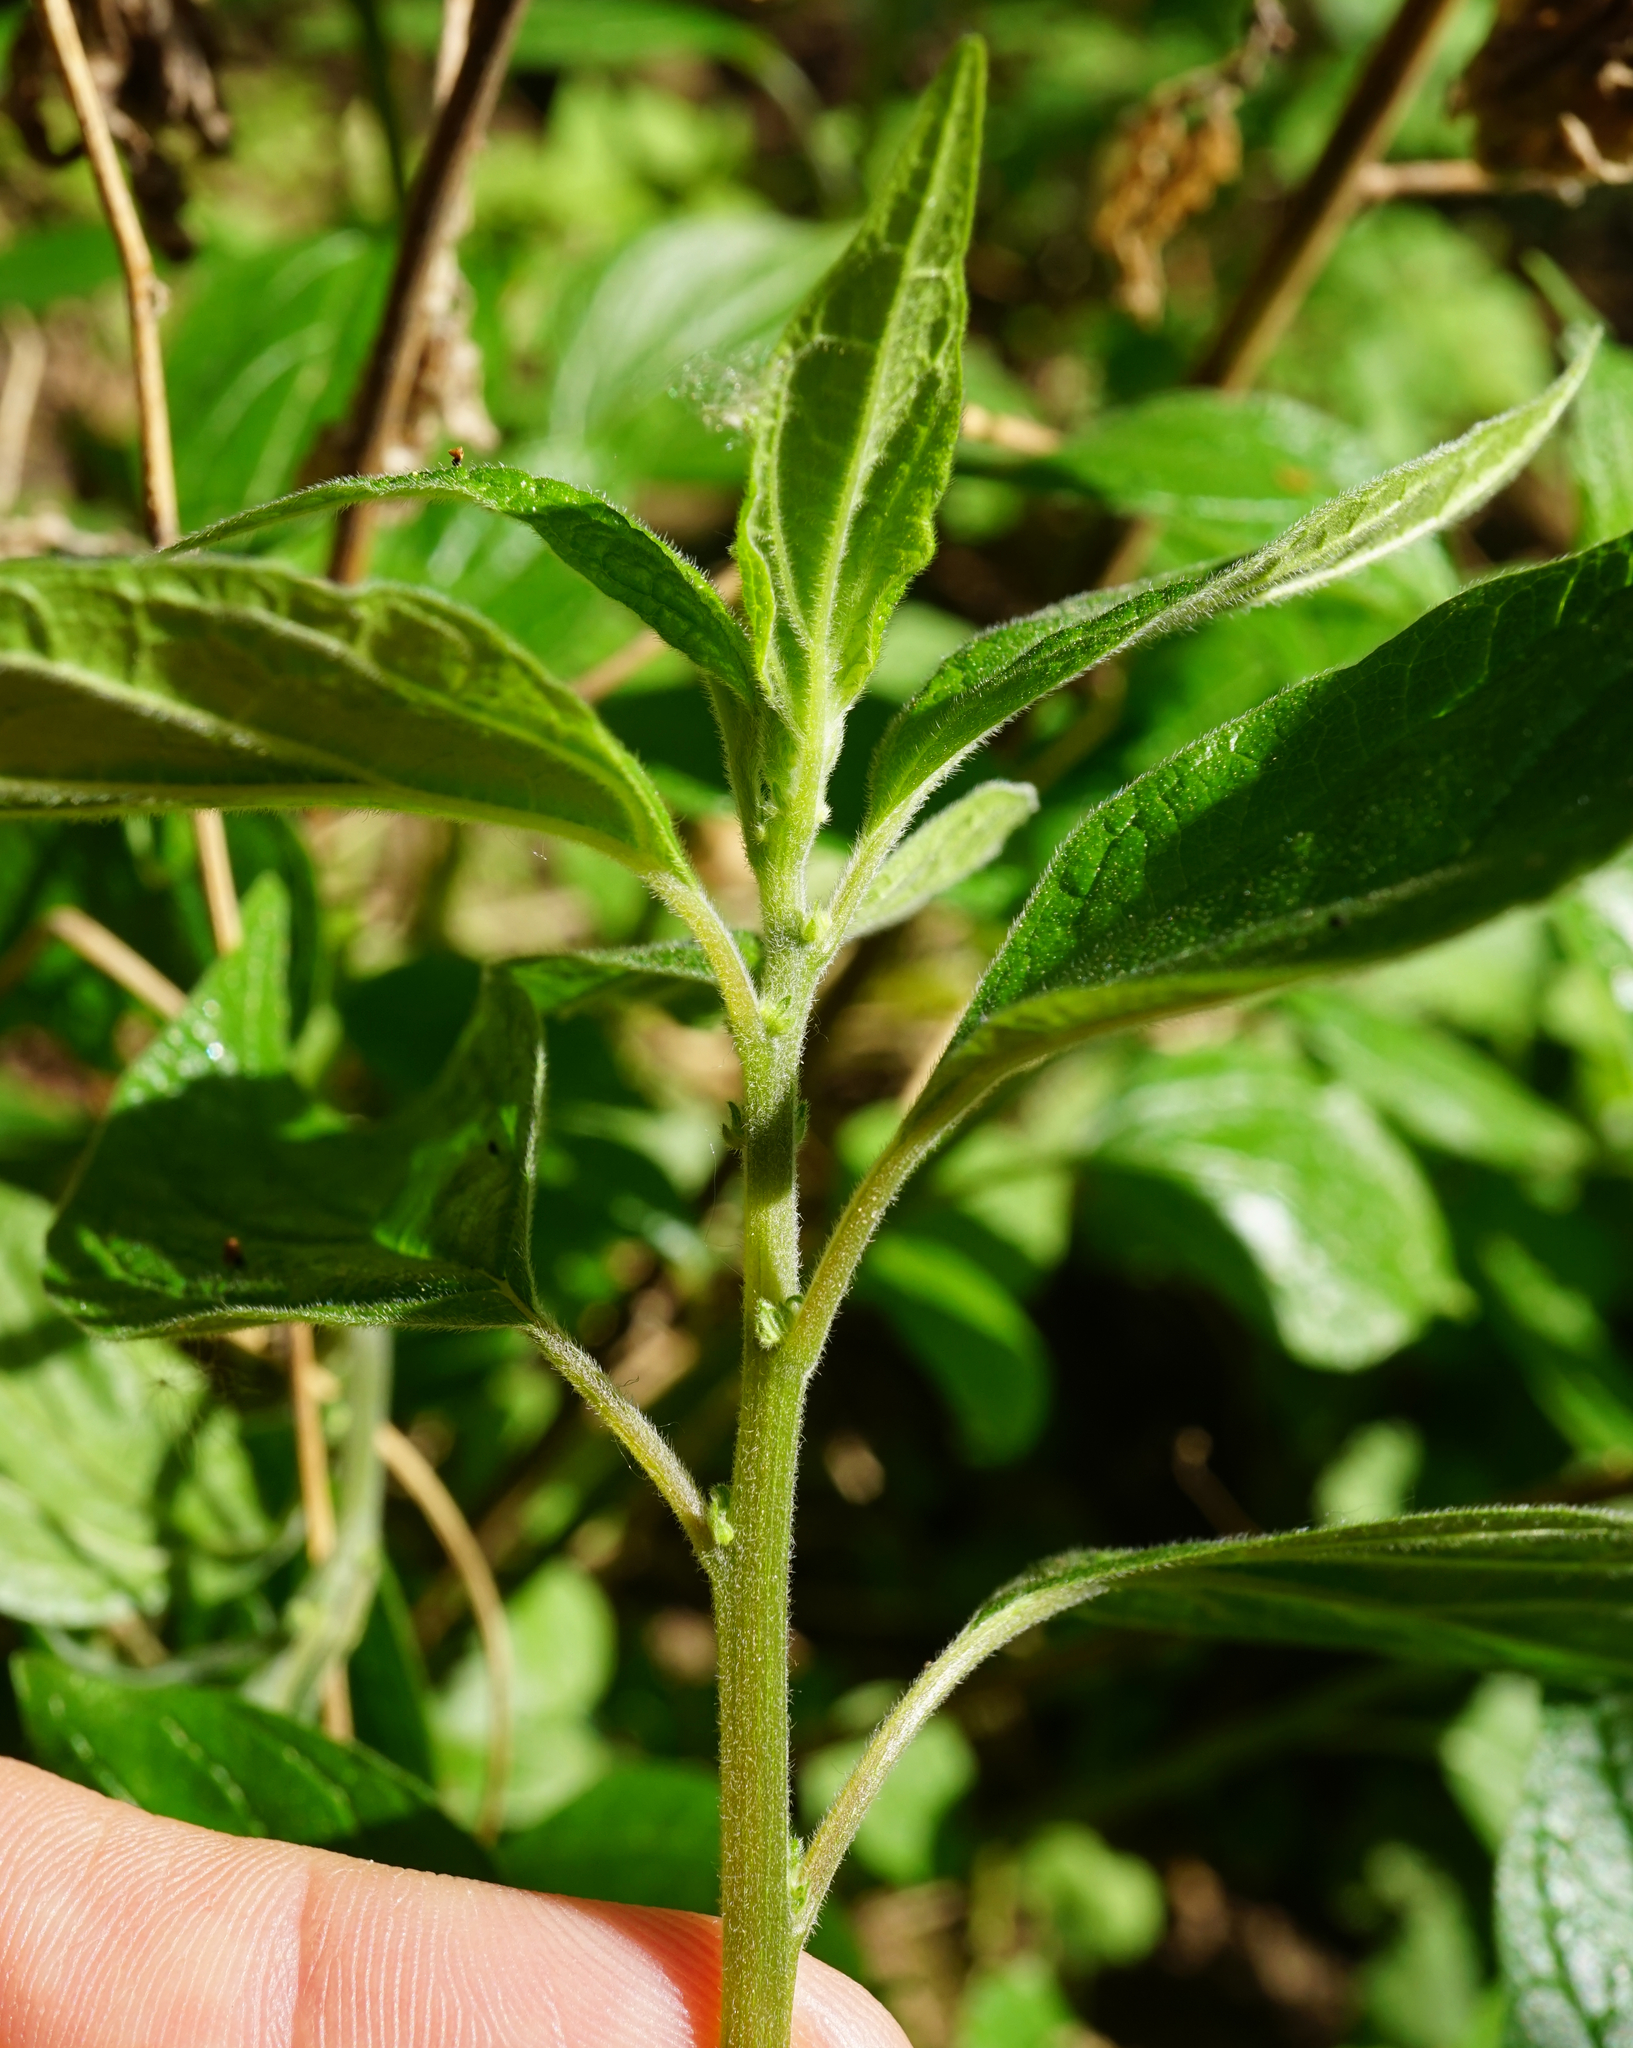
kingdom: Plantae
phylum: Tracheophyta
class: Magnoliopsida
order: Rosales
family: Urticaceae
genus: Parietaria
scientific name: Parietaria officinalis
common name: Eastern pellitory-of-the-wall
